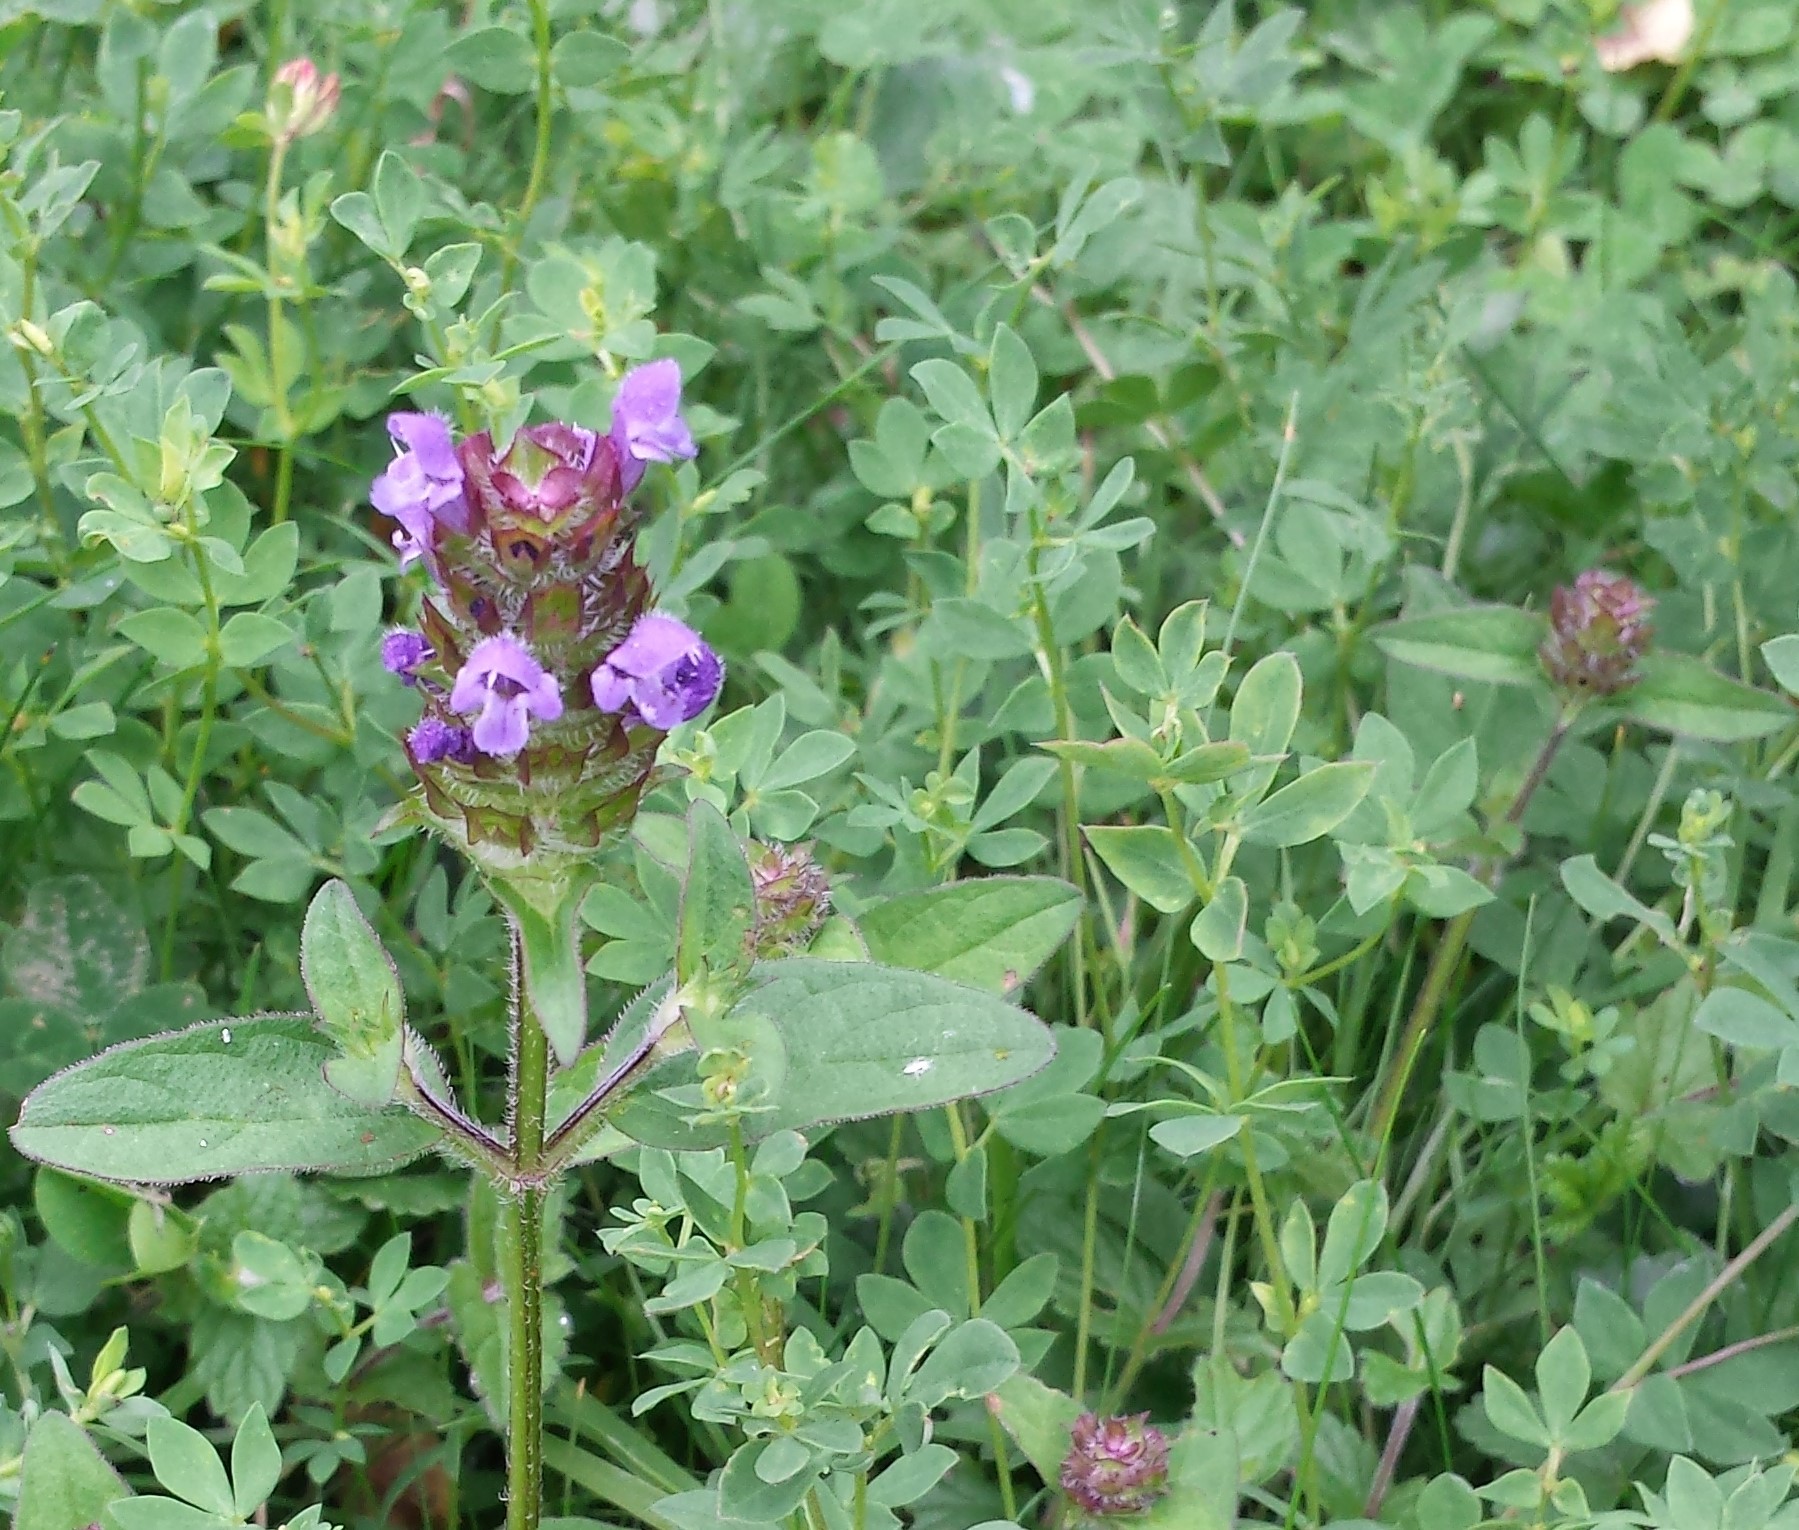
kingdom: Plantae
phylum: Tracheophyta
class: Magnoliopsida
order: Lamiales
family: Lamiaceae
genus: Prunella
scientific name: Prunella vulgaris
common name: Heal-all
